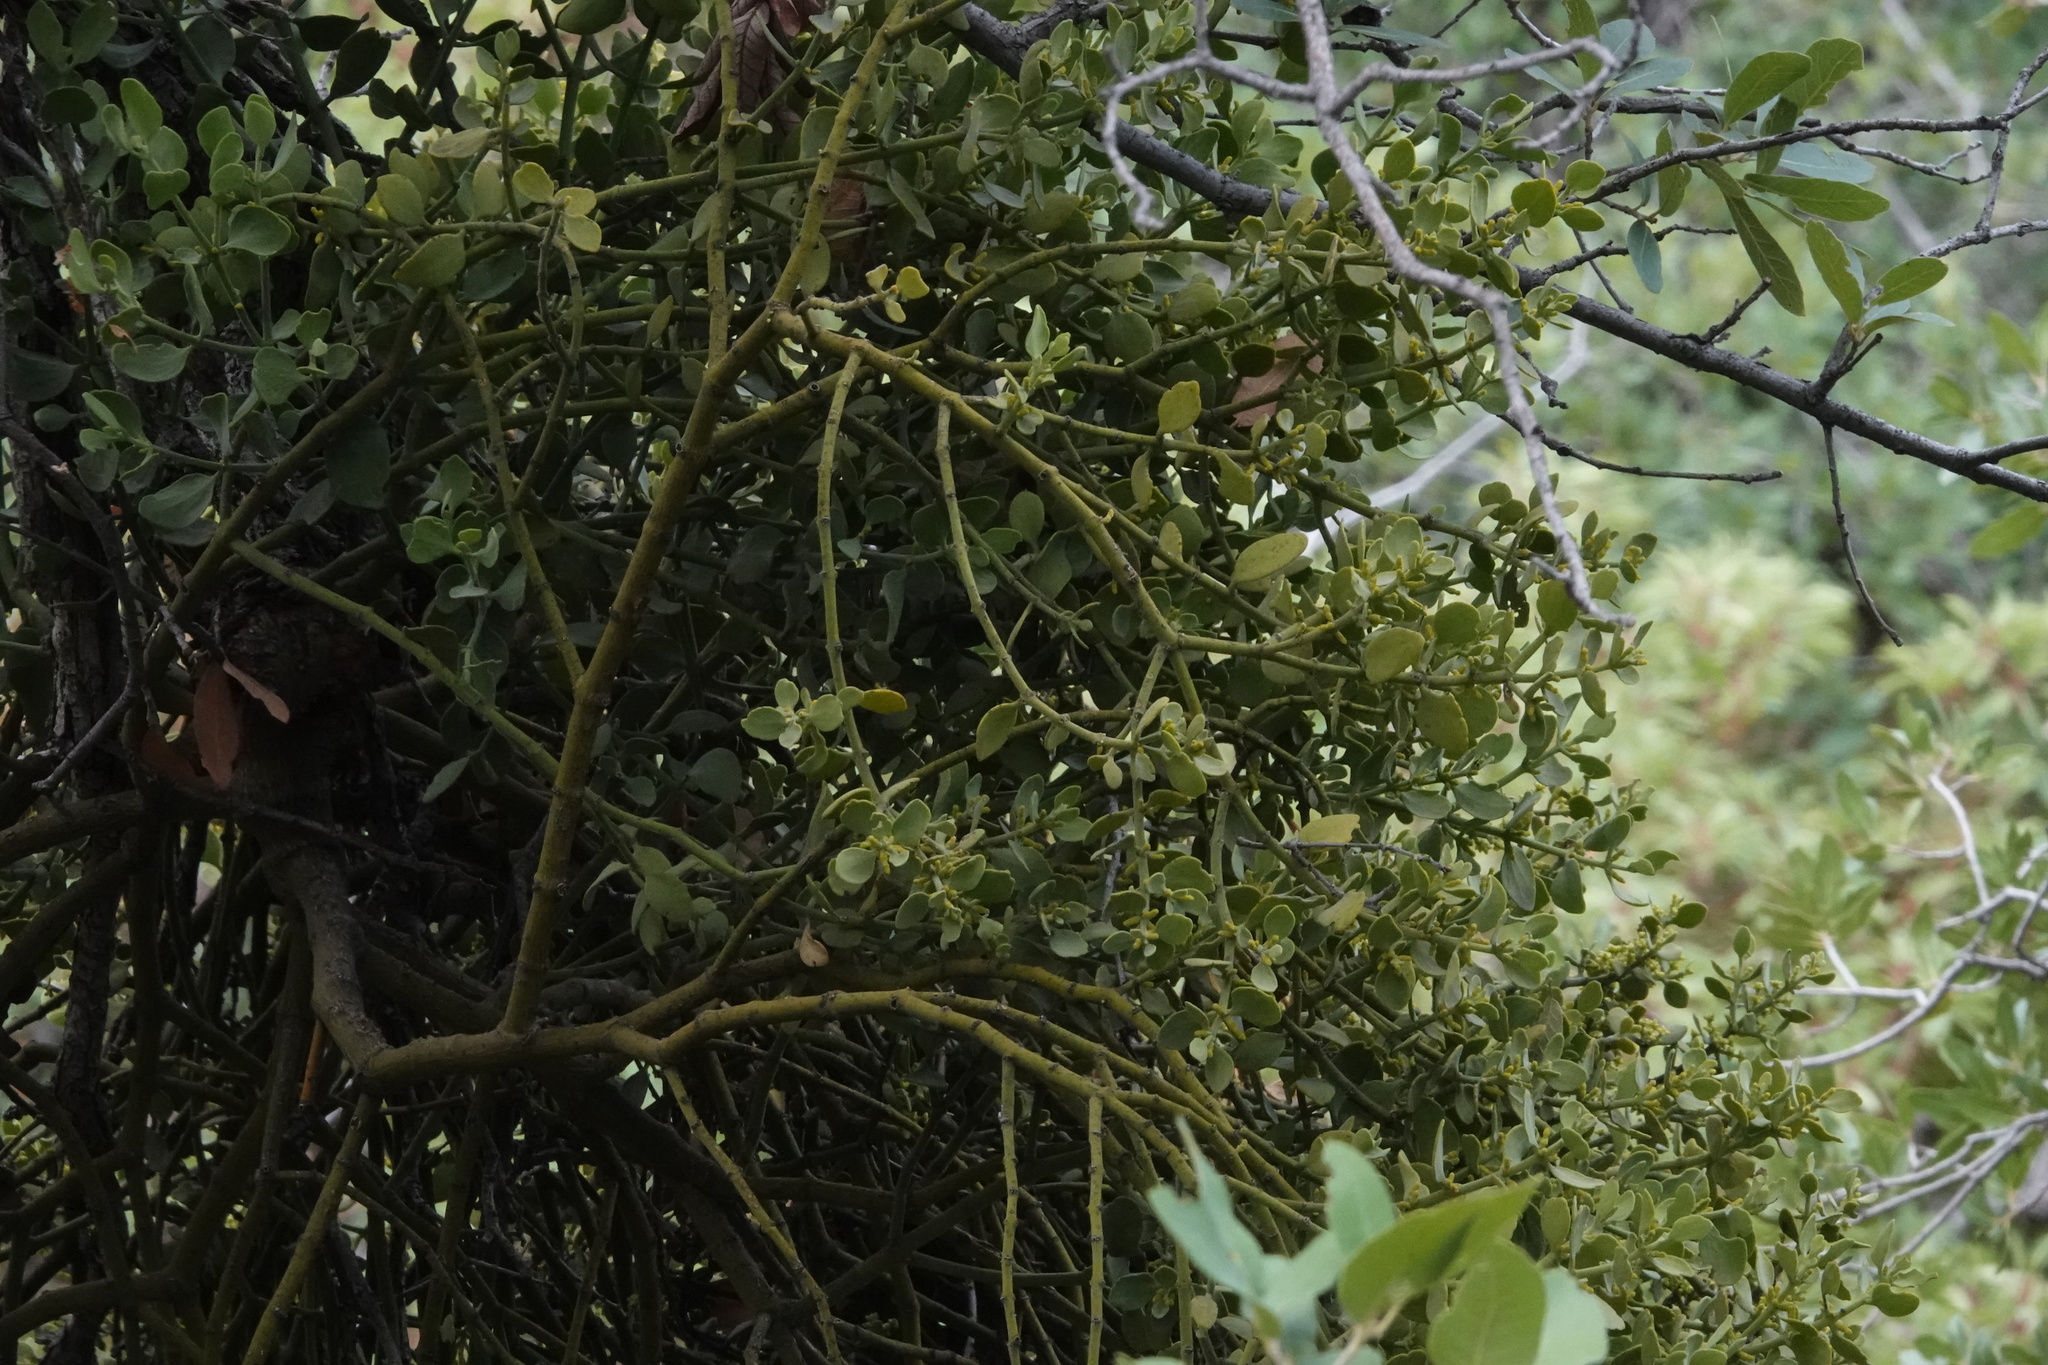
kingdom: Plantae
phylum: Tracheophyta
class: Magnoliopsida
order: Santalales
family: Viscaceae
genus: Phoradendron
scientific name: Phoradendron coryae
